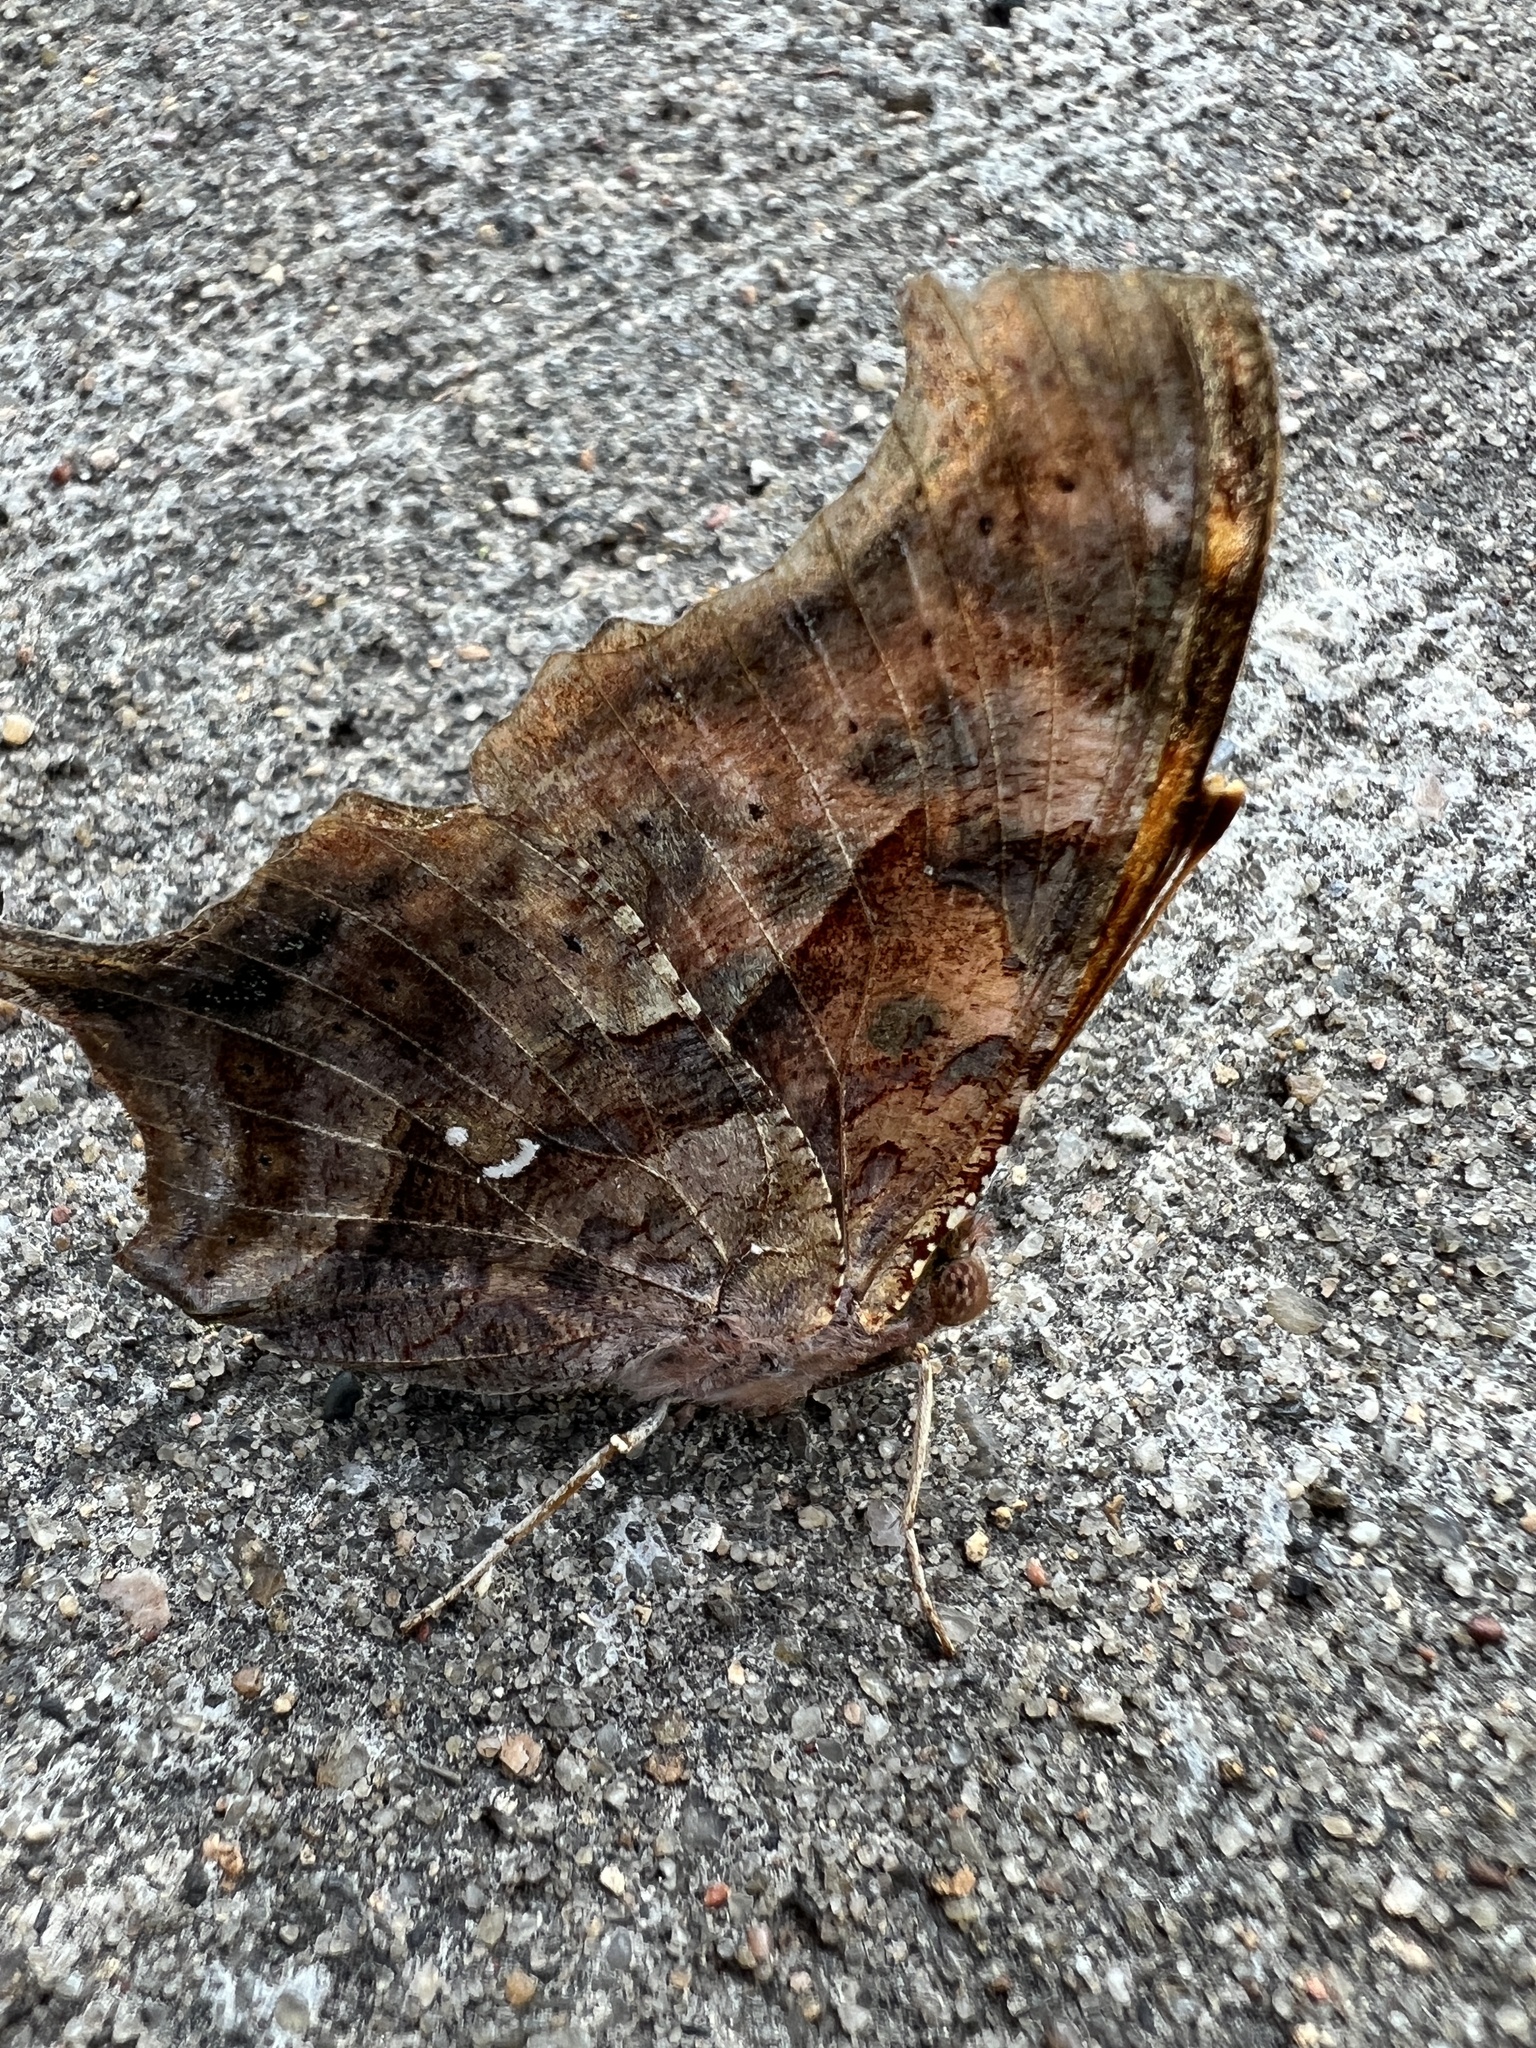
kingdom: Animalia
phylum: Arthropoda
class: Insecta
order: Lepidoptera
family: Nymphalidae
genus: Polygonia
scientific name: Polygonia interrogationis
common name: Question mark
